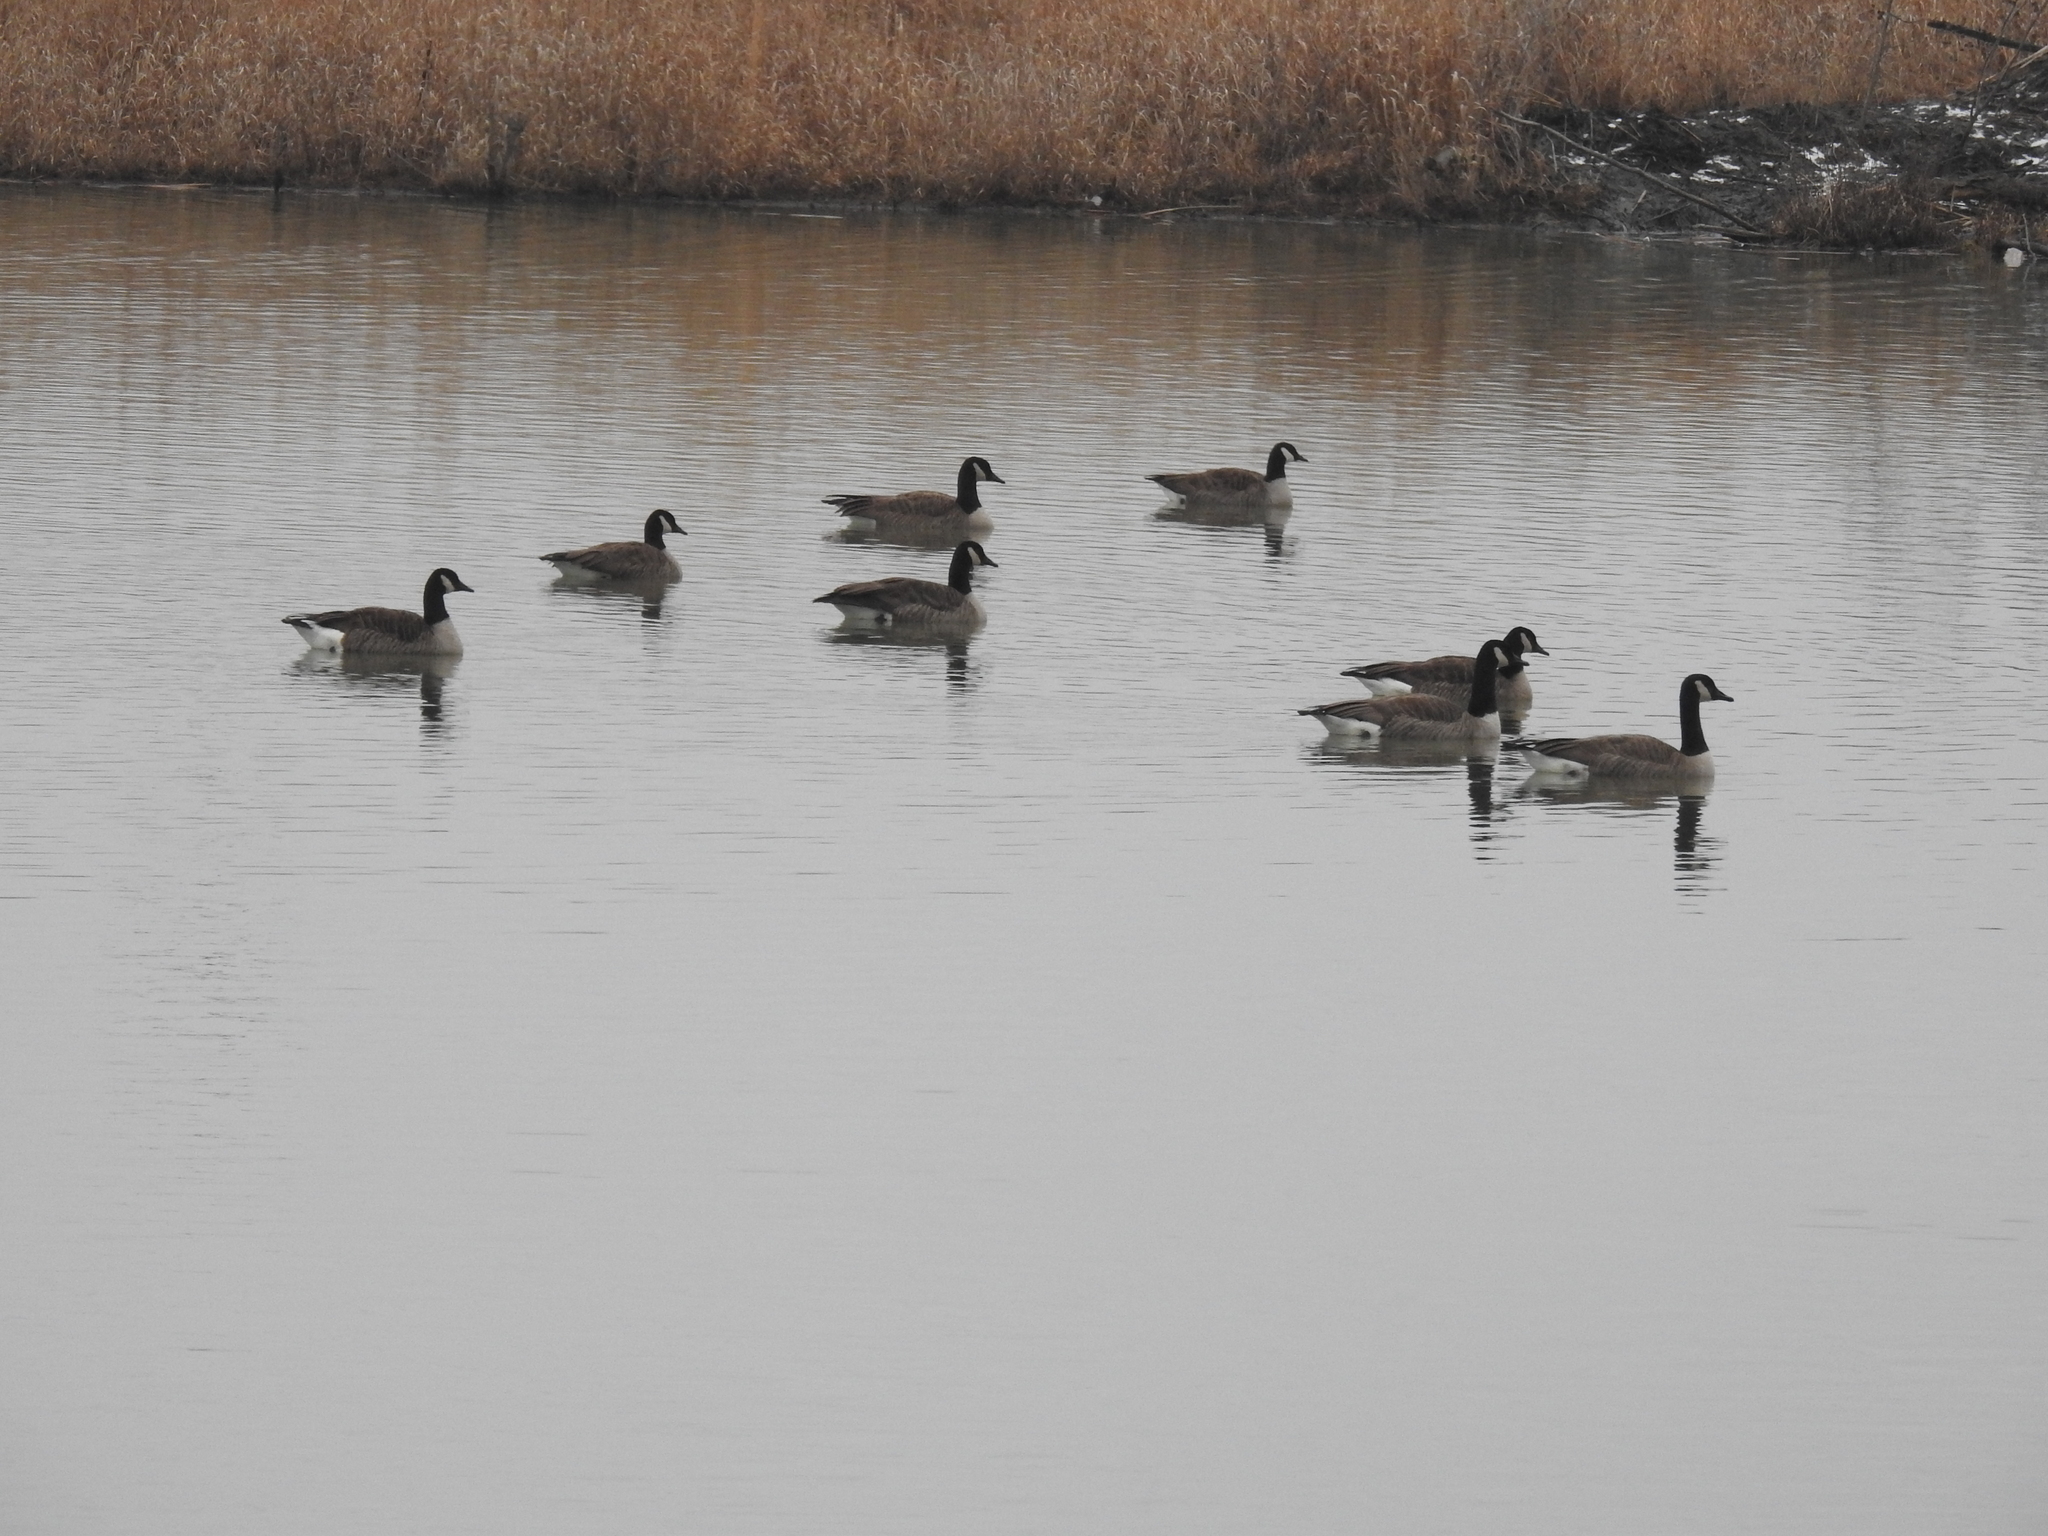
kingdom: Animalia
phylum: Chordata
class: Aves
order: Anseriformes
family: Anatidae
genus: Branta
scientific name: Branta canadensis
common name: Canada goose
